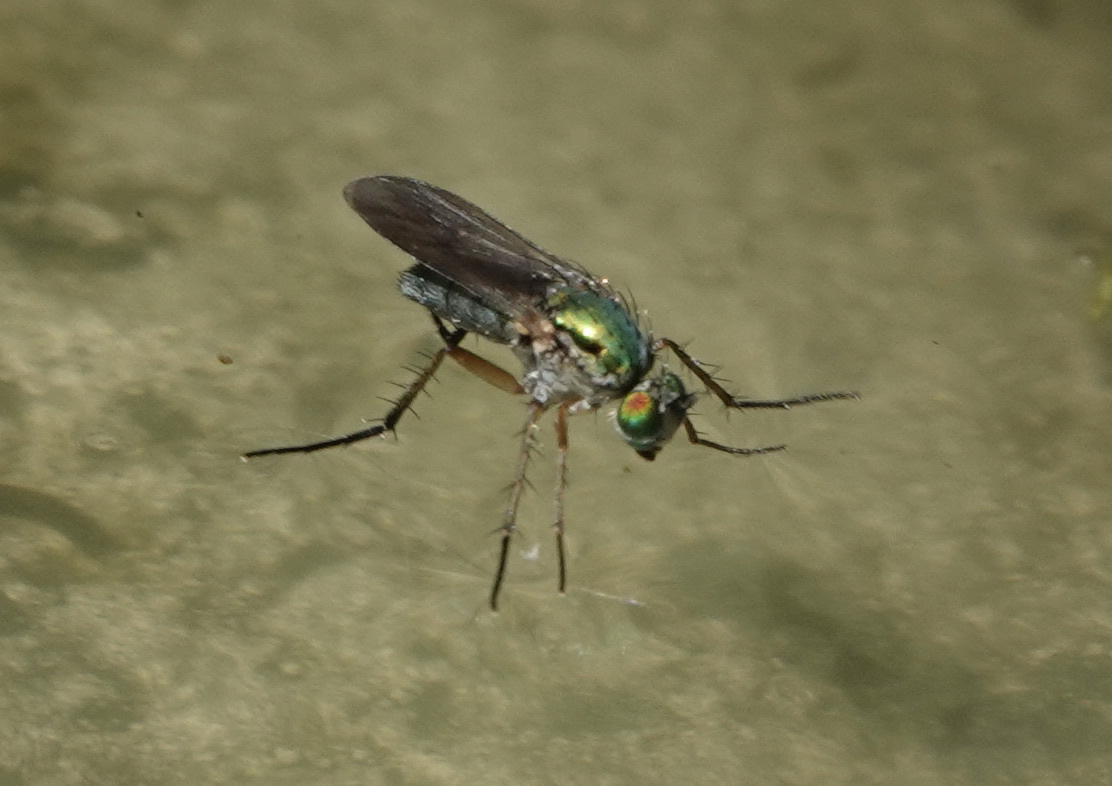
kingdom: Animalia
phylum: Arthropoda
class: Insecta
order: Diptera
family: Dolichopodidae
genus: Poecilobothrus
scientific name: Poecilobothrus nobilitatus
